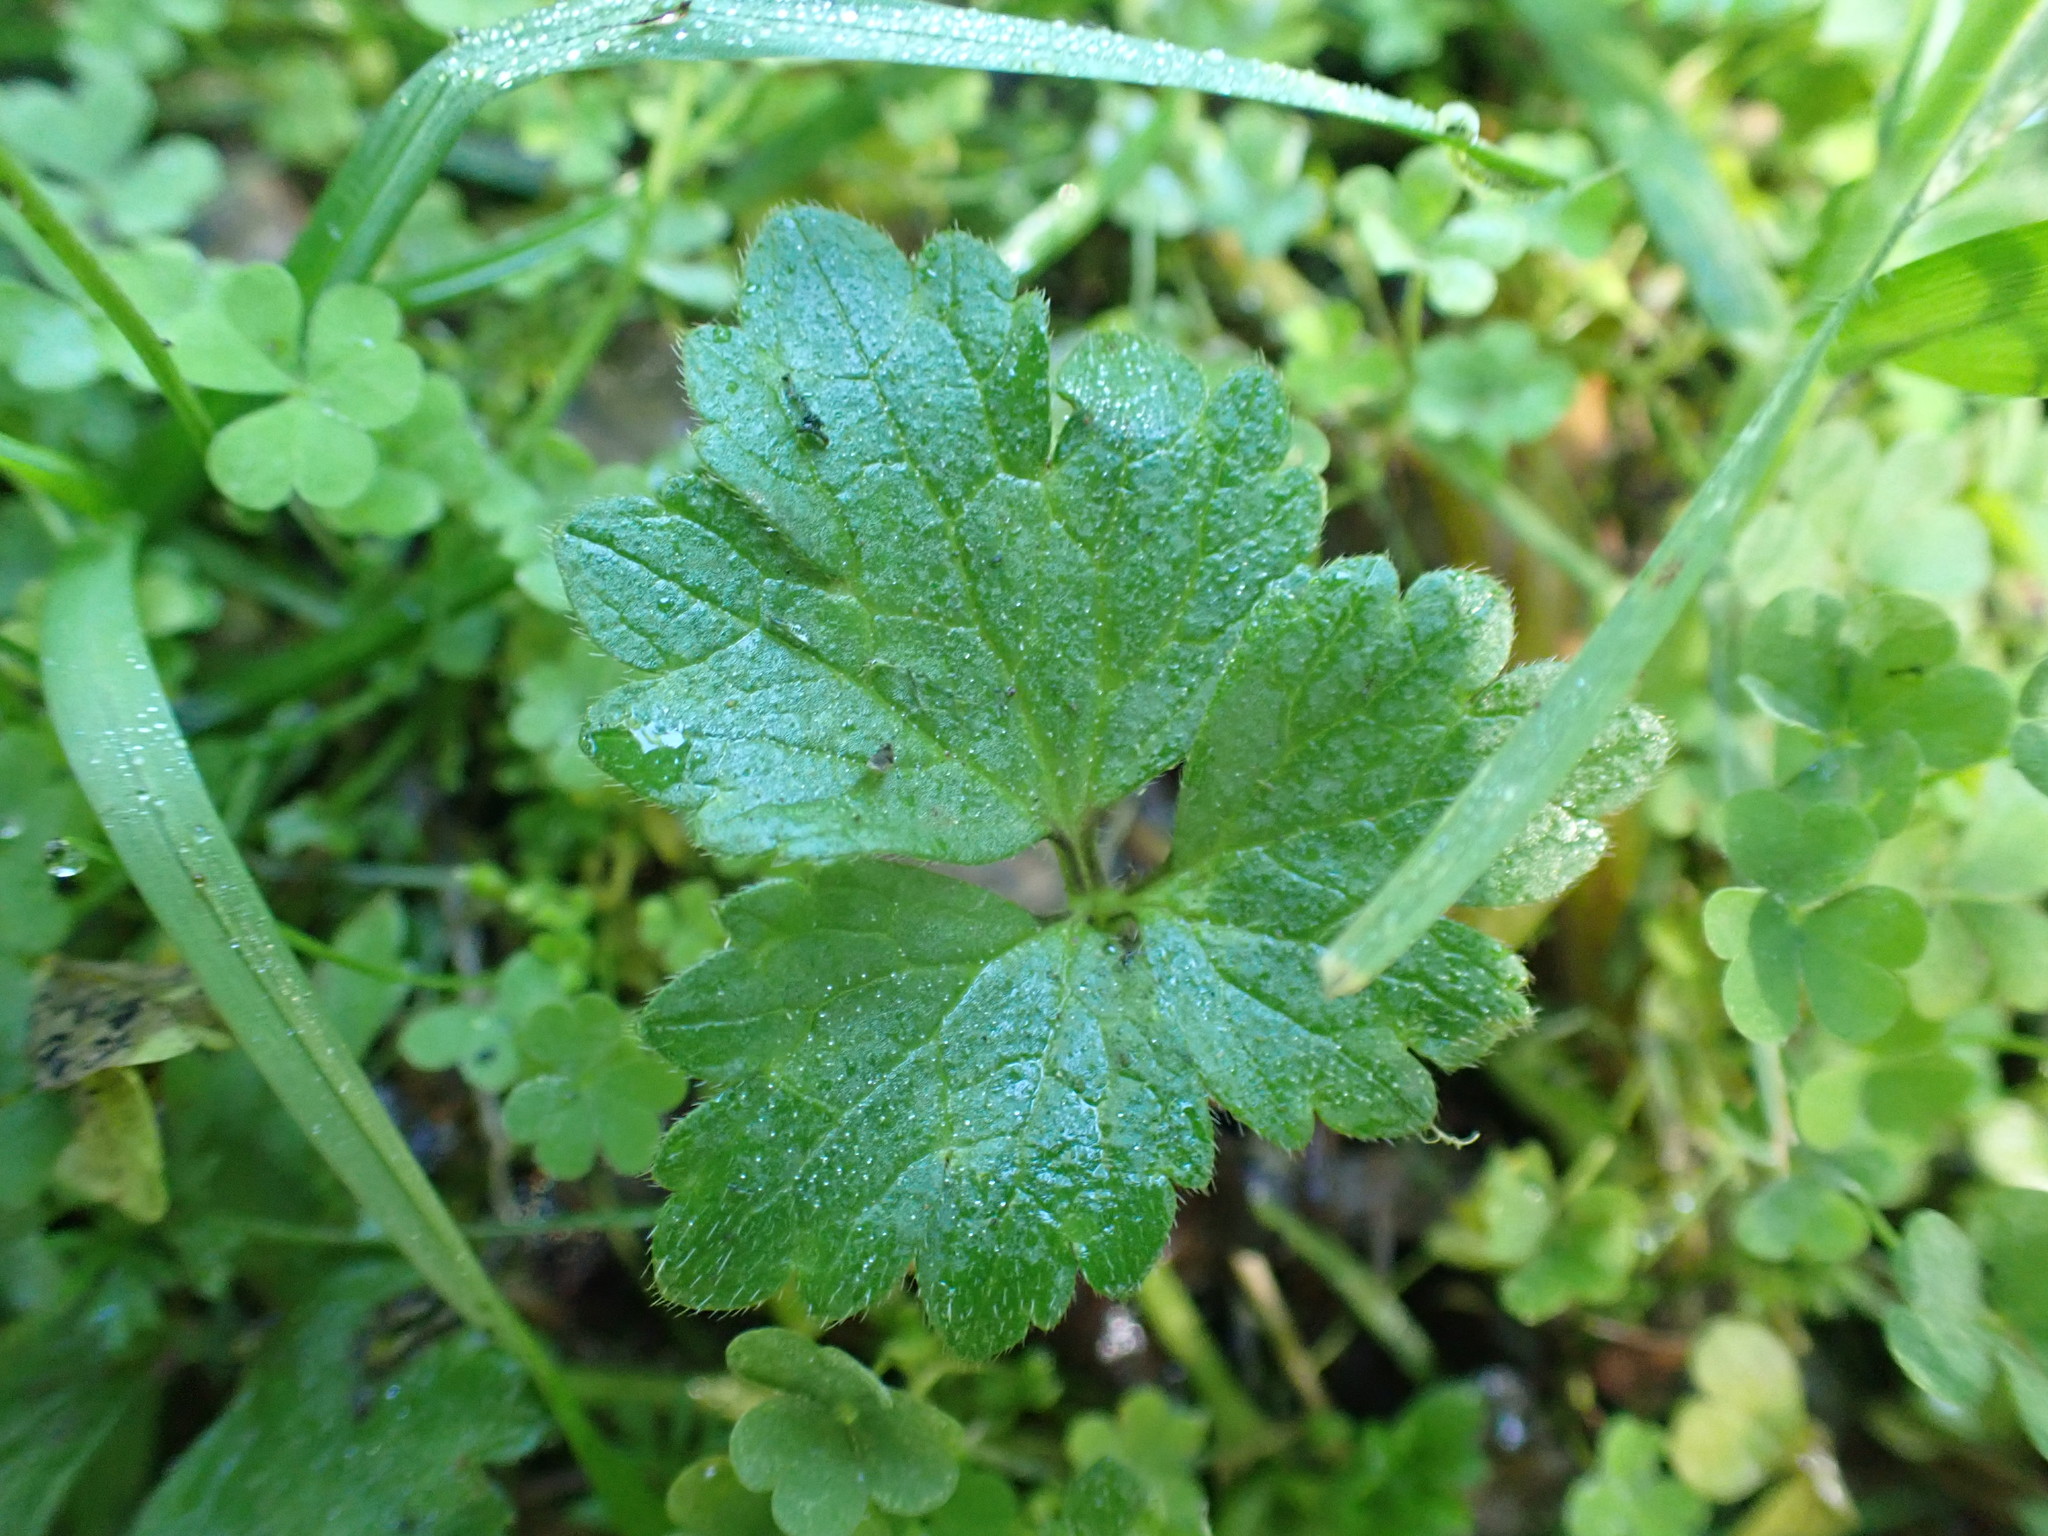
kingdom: Plantae
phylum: Tracheophyta
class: Magnoliopsida
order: Ranunculales
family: Ranunculaceae
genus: Ranunculus
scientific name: Ranunculus repens
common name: Creeping buttercup
